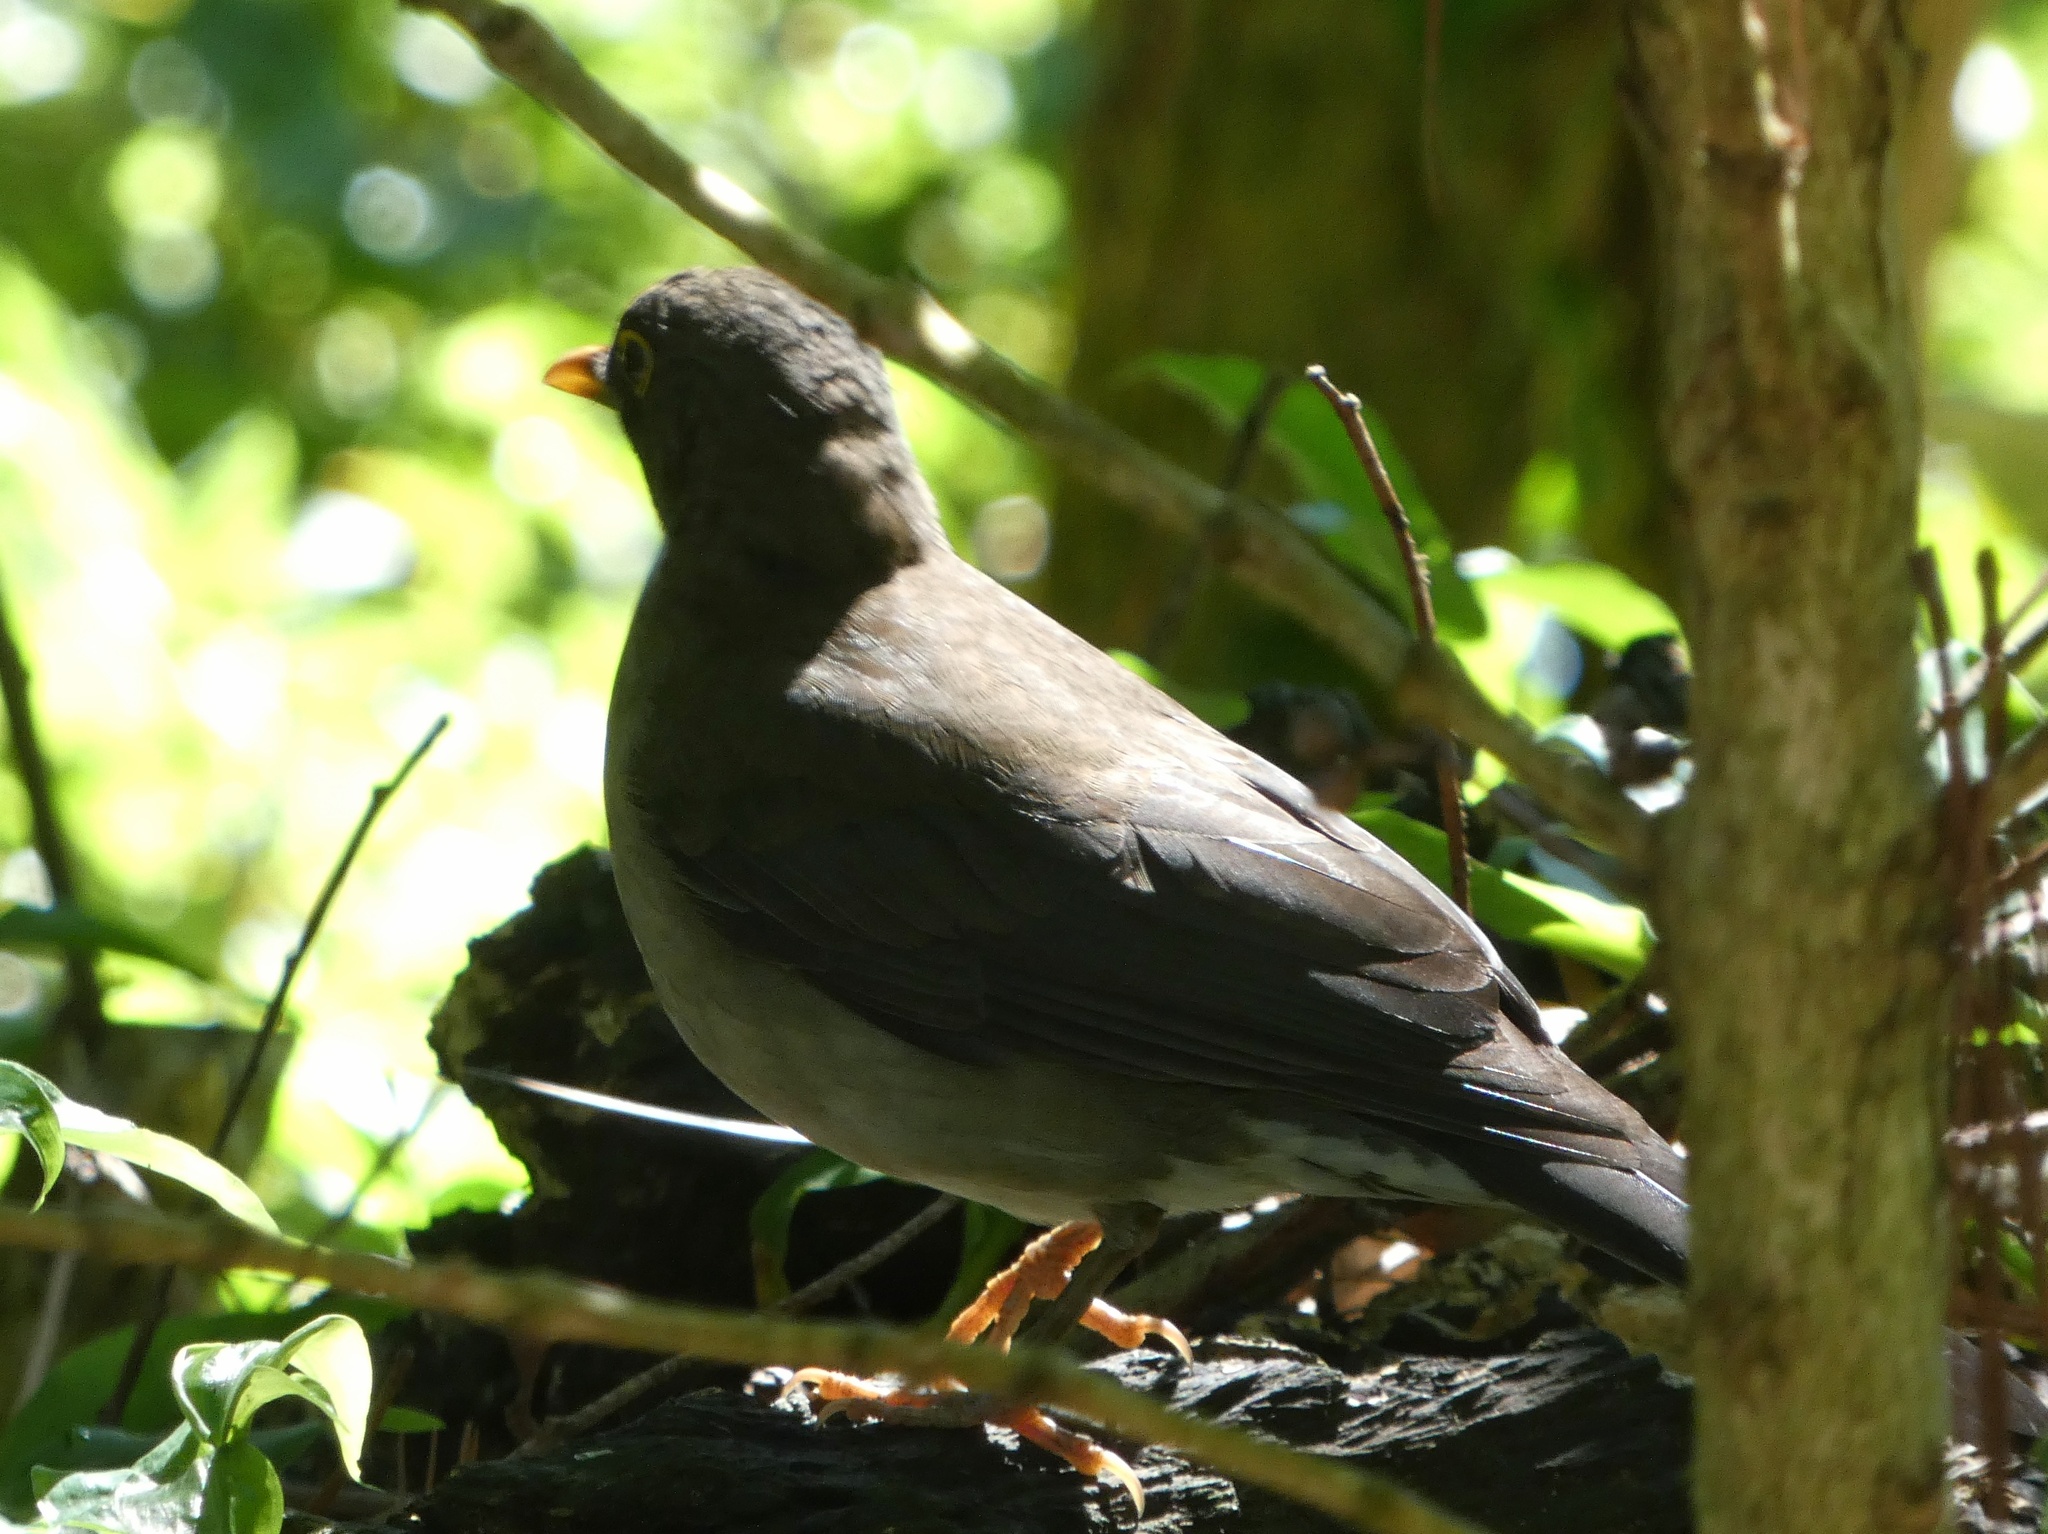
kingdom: Animalia
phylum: Chordata
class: Aves
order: Passeriformes
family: Turdidae
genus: Turdus
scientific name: Turdus assimilis
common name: White-throated thrush
